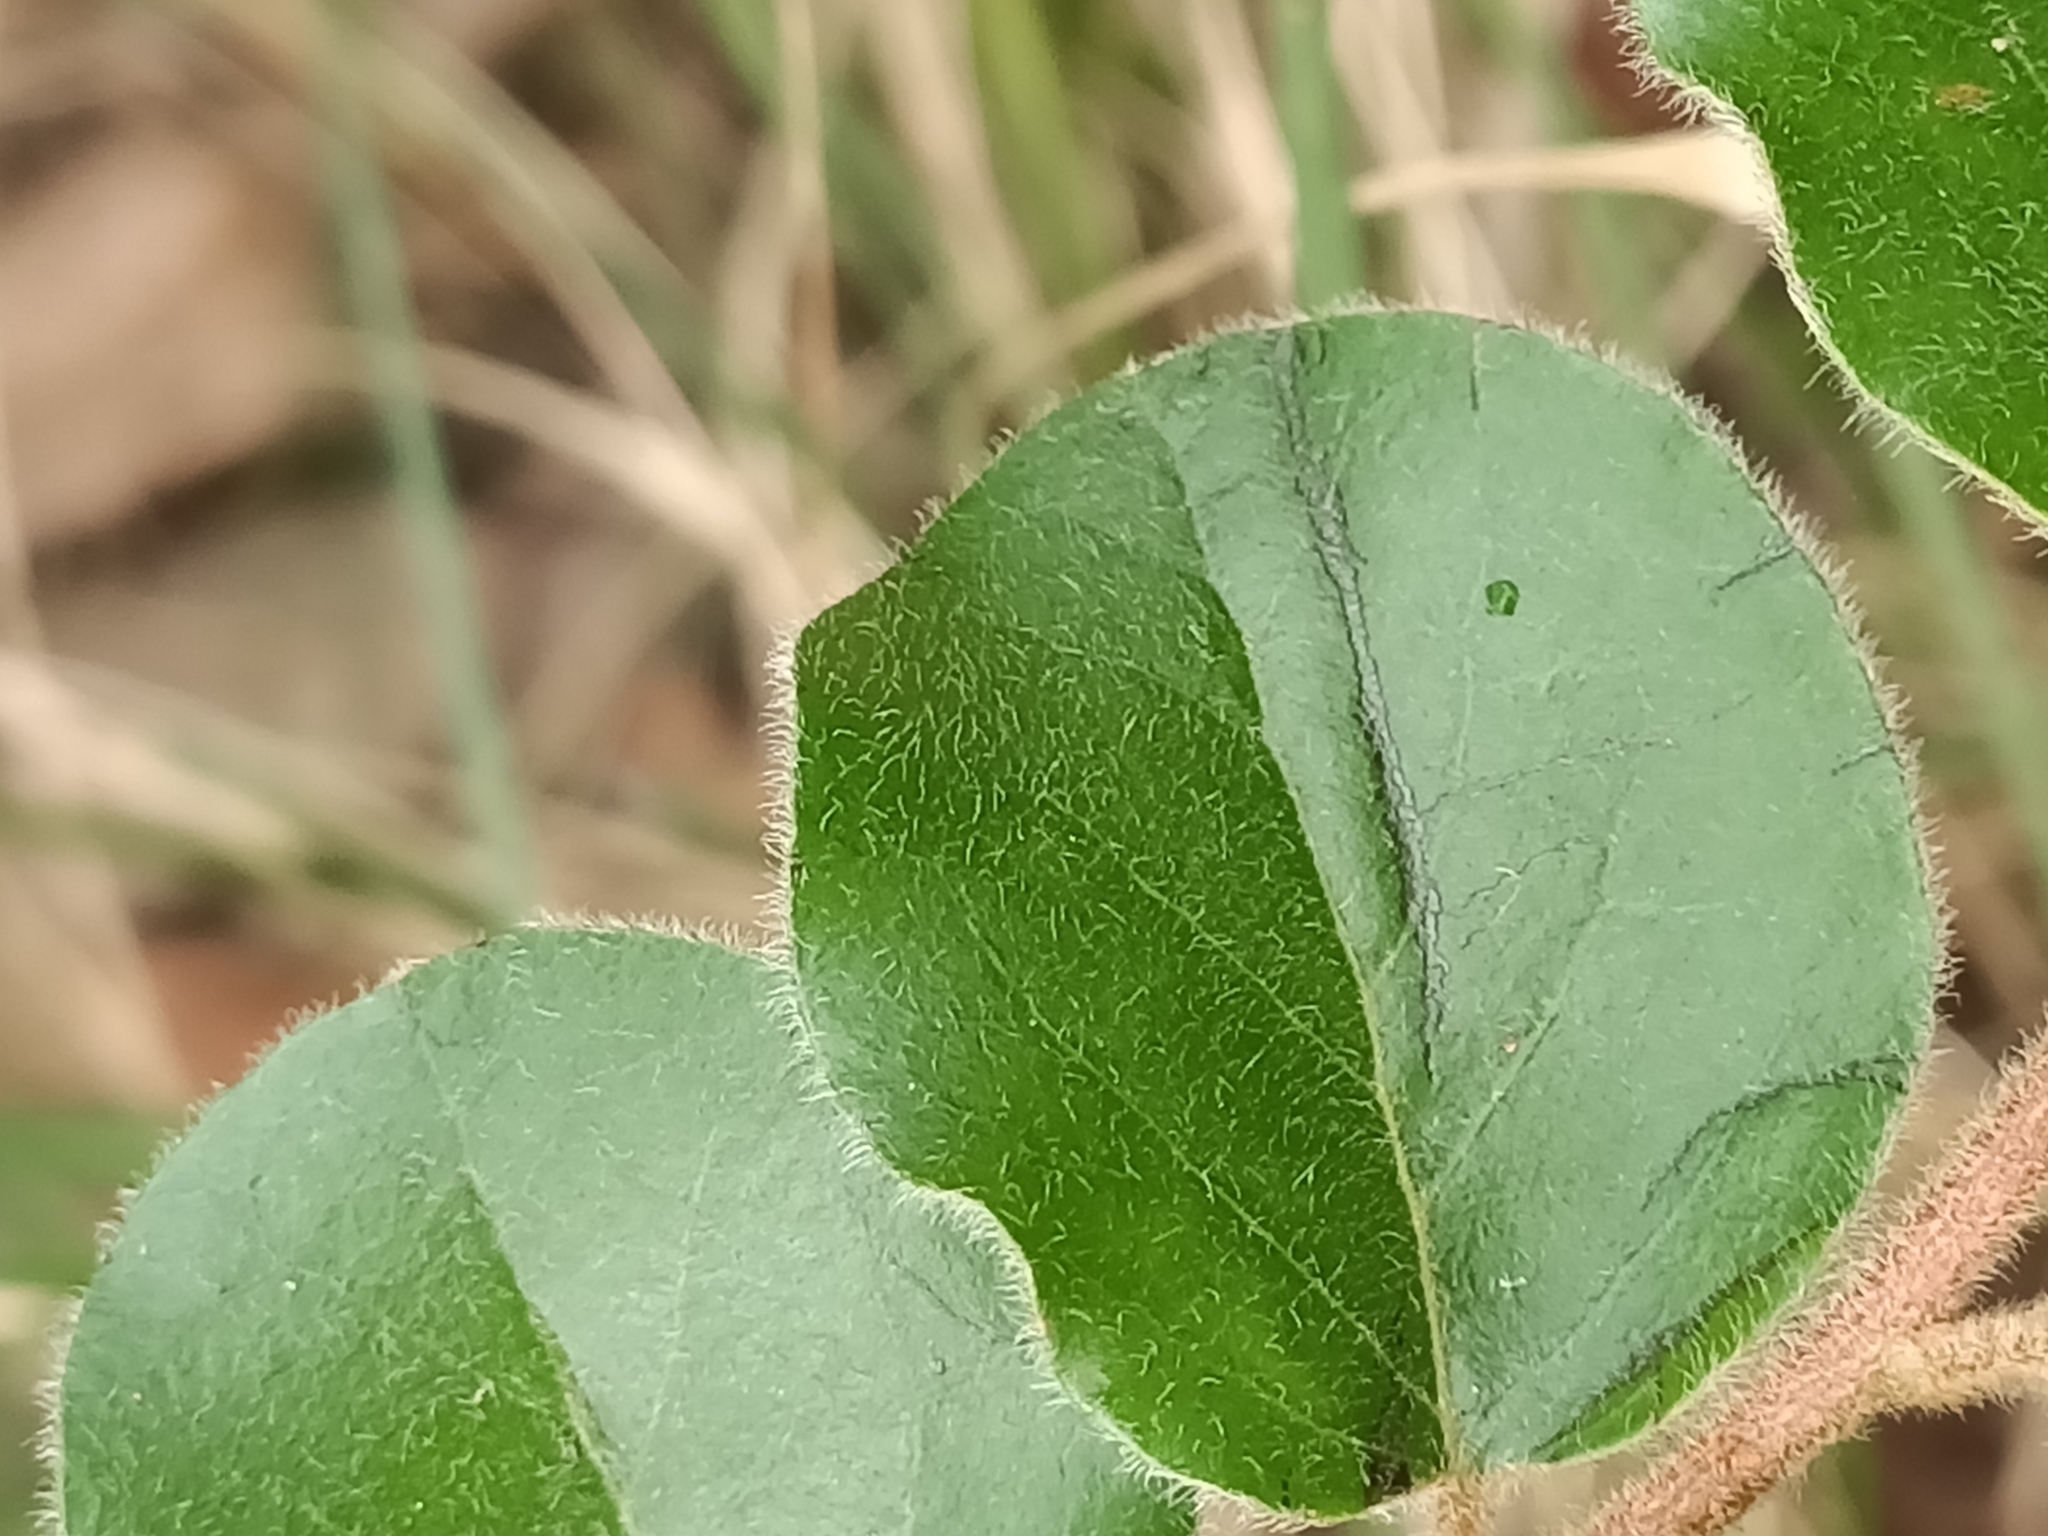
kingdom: Plantae
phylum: Tracheophyta
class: Magnoliopsida
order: Malpighiales
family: Picrodendraceae
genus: Petalostigma
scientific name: Petalostigma pubescens
